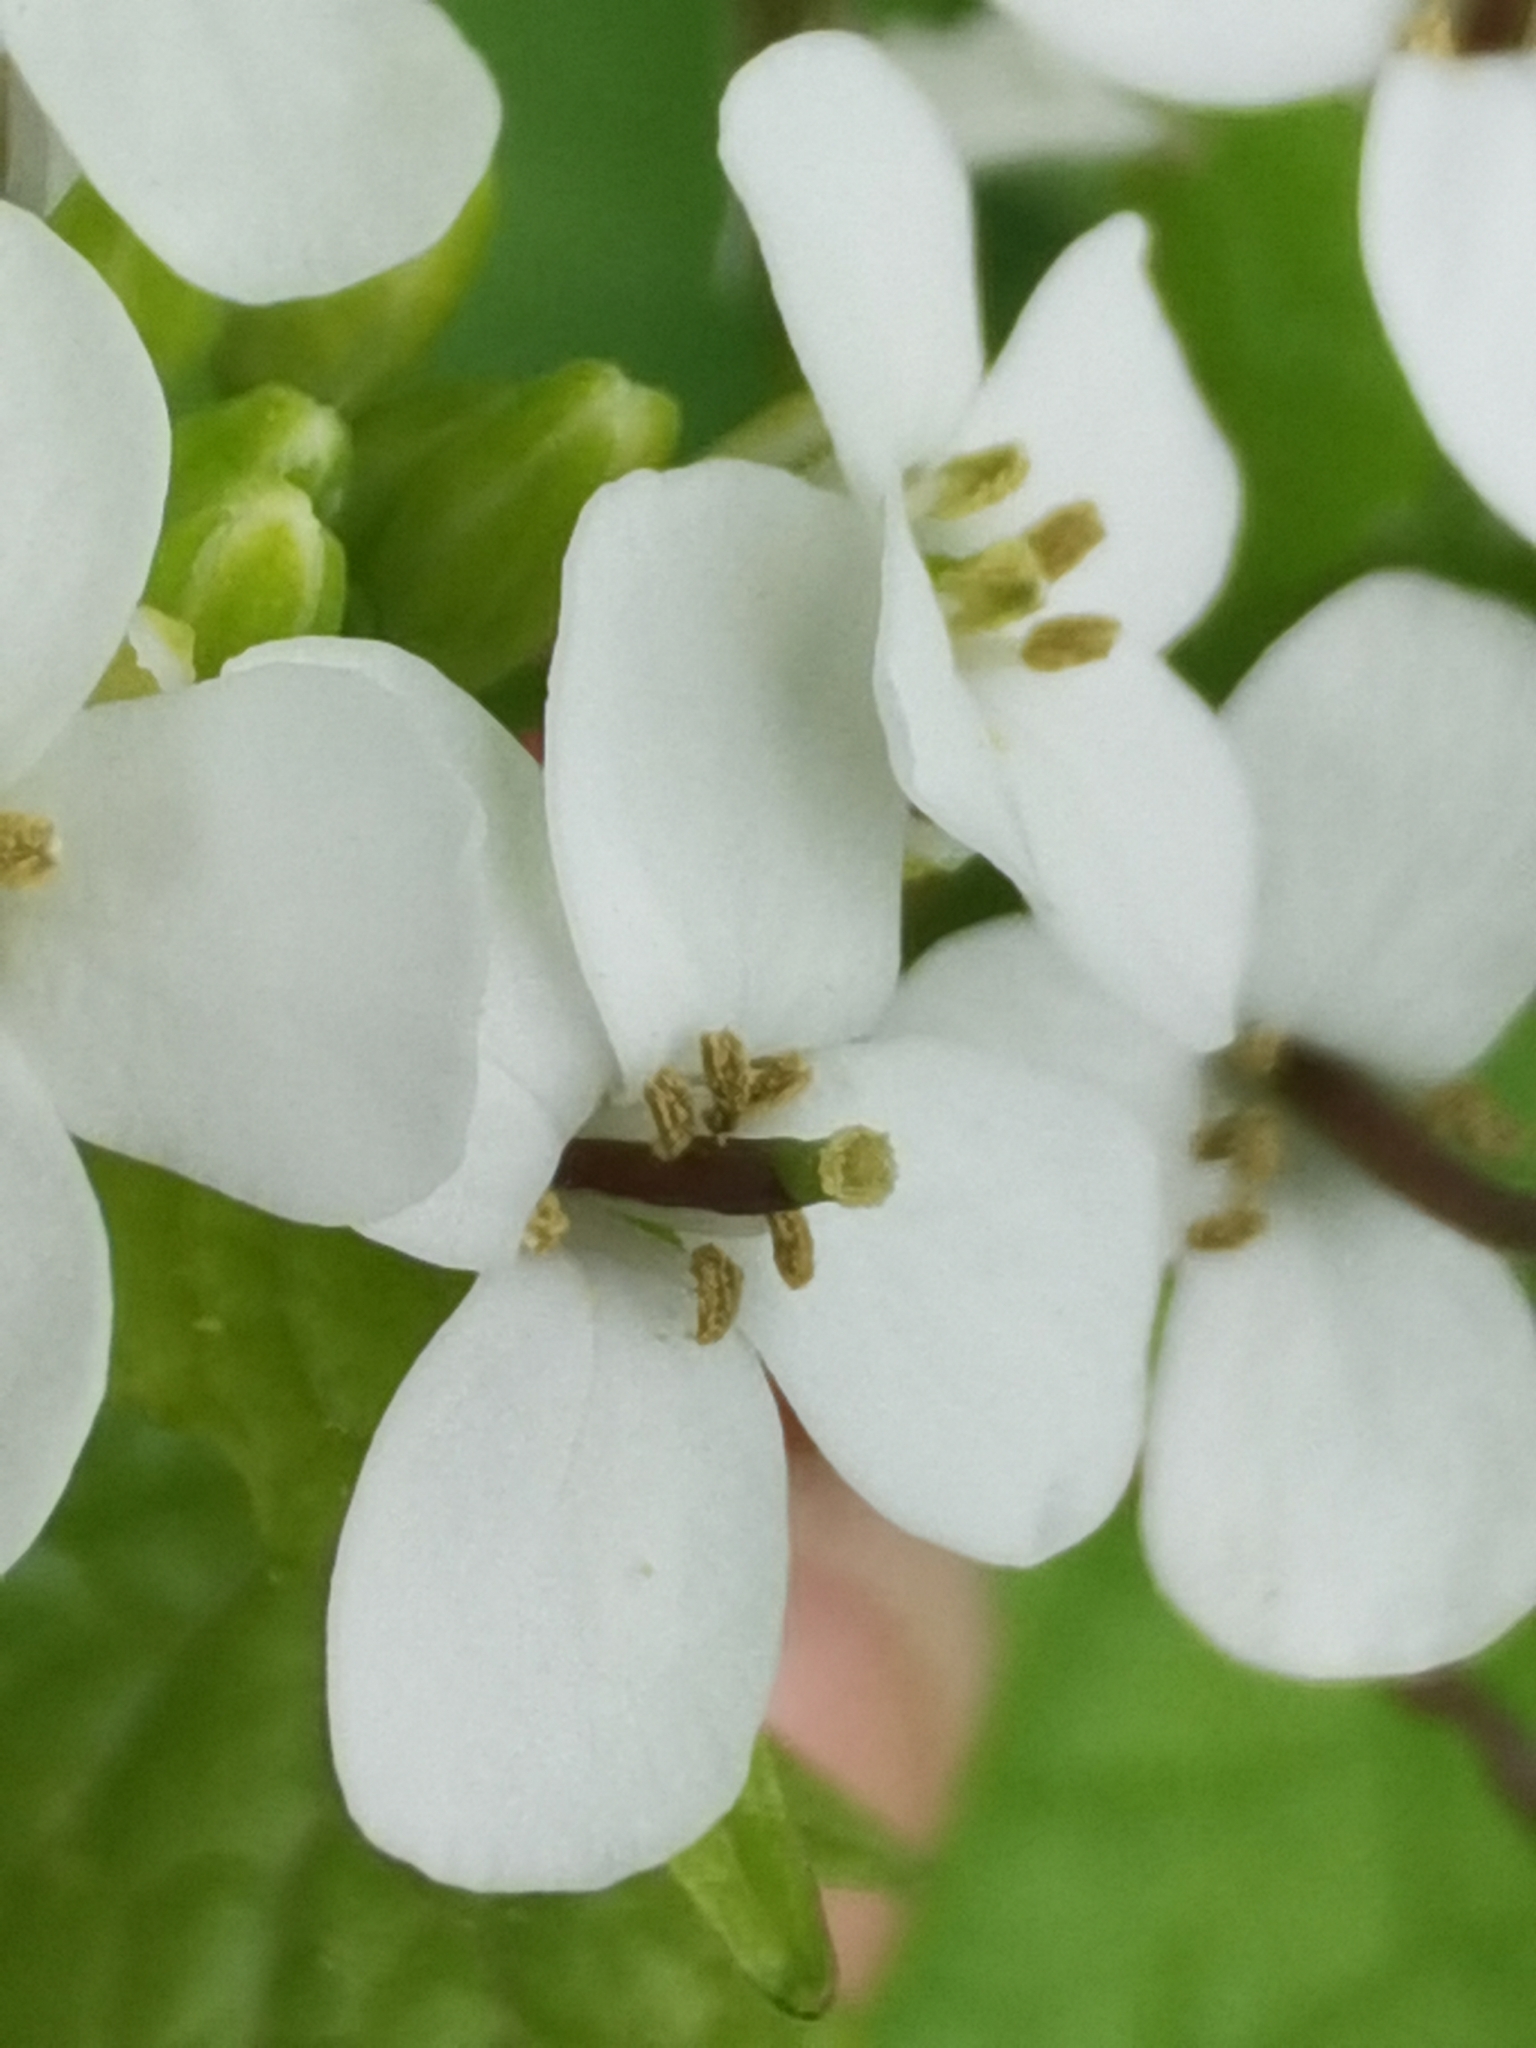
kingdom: Plantae
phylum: Tracheophyta
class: Magnoliopsida
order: Brassicales
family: Brassicaceae
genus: Alliaria
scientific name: Alliaria petiolata
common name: Garlic mustard
